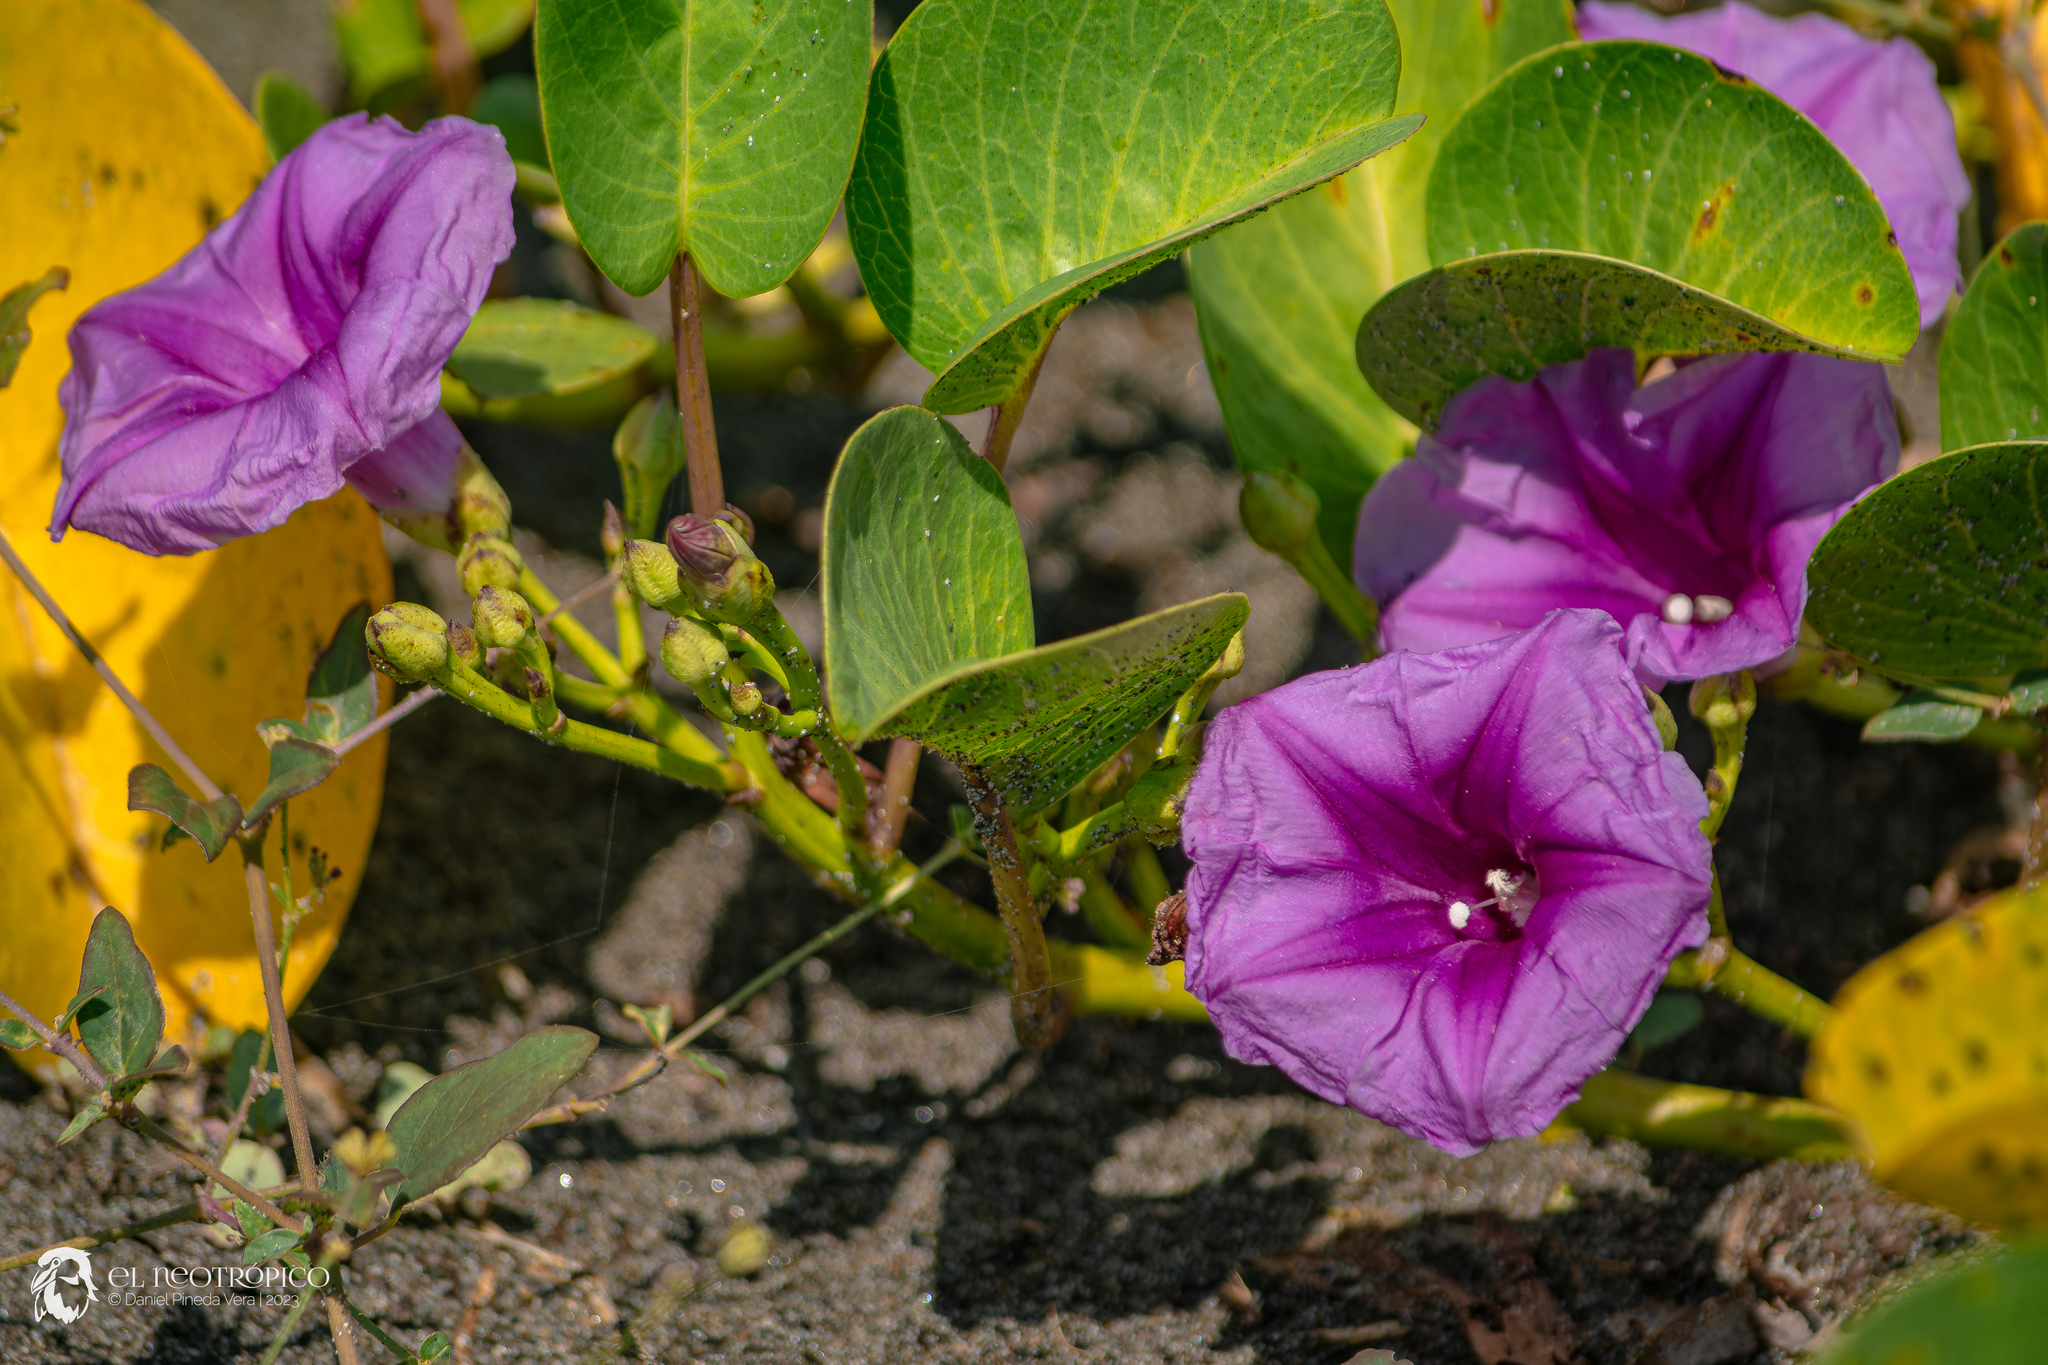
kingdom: Plantae
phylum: Tracheophyta
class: Magnoliopsida
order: Solanales
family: Convolvulaceae
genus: Ipomoea
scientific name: Ipomoea pes-caprae
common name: Beach morning glory
